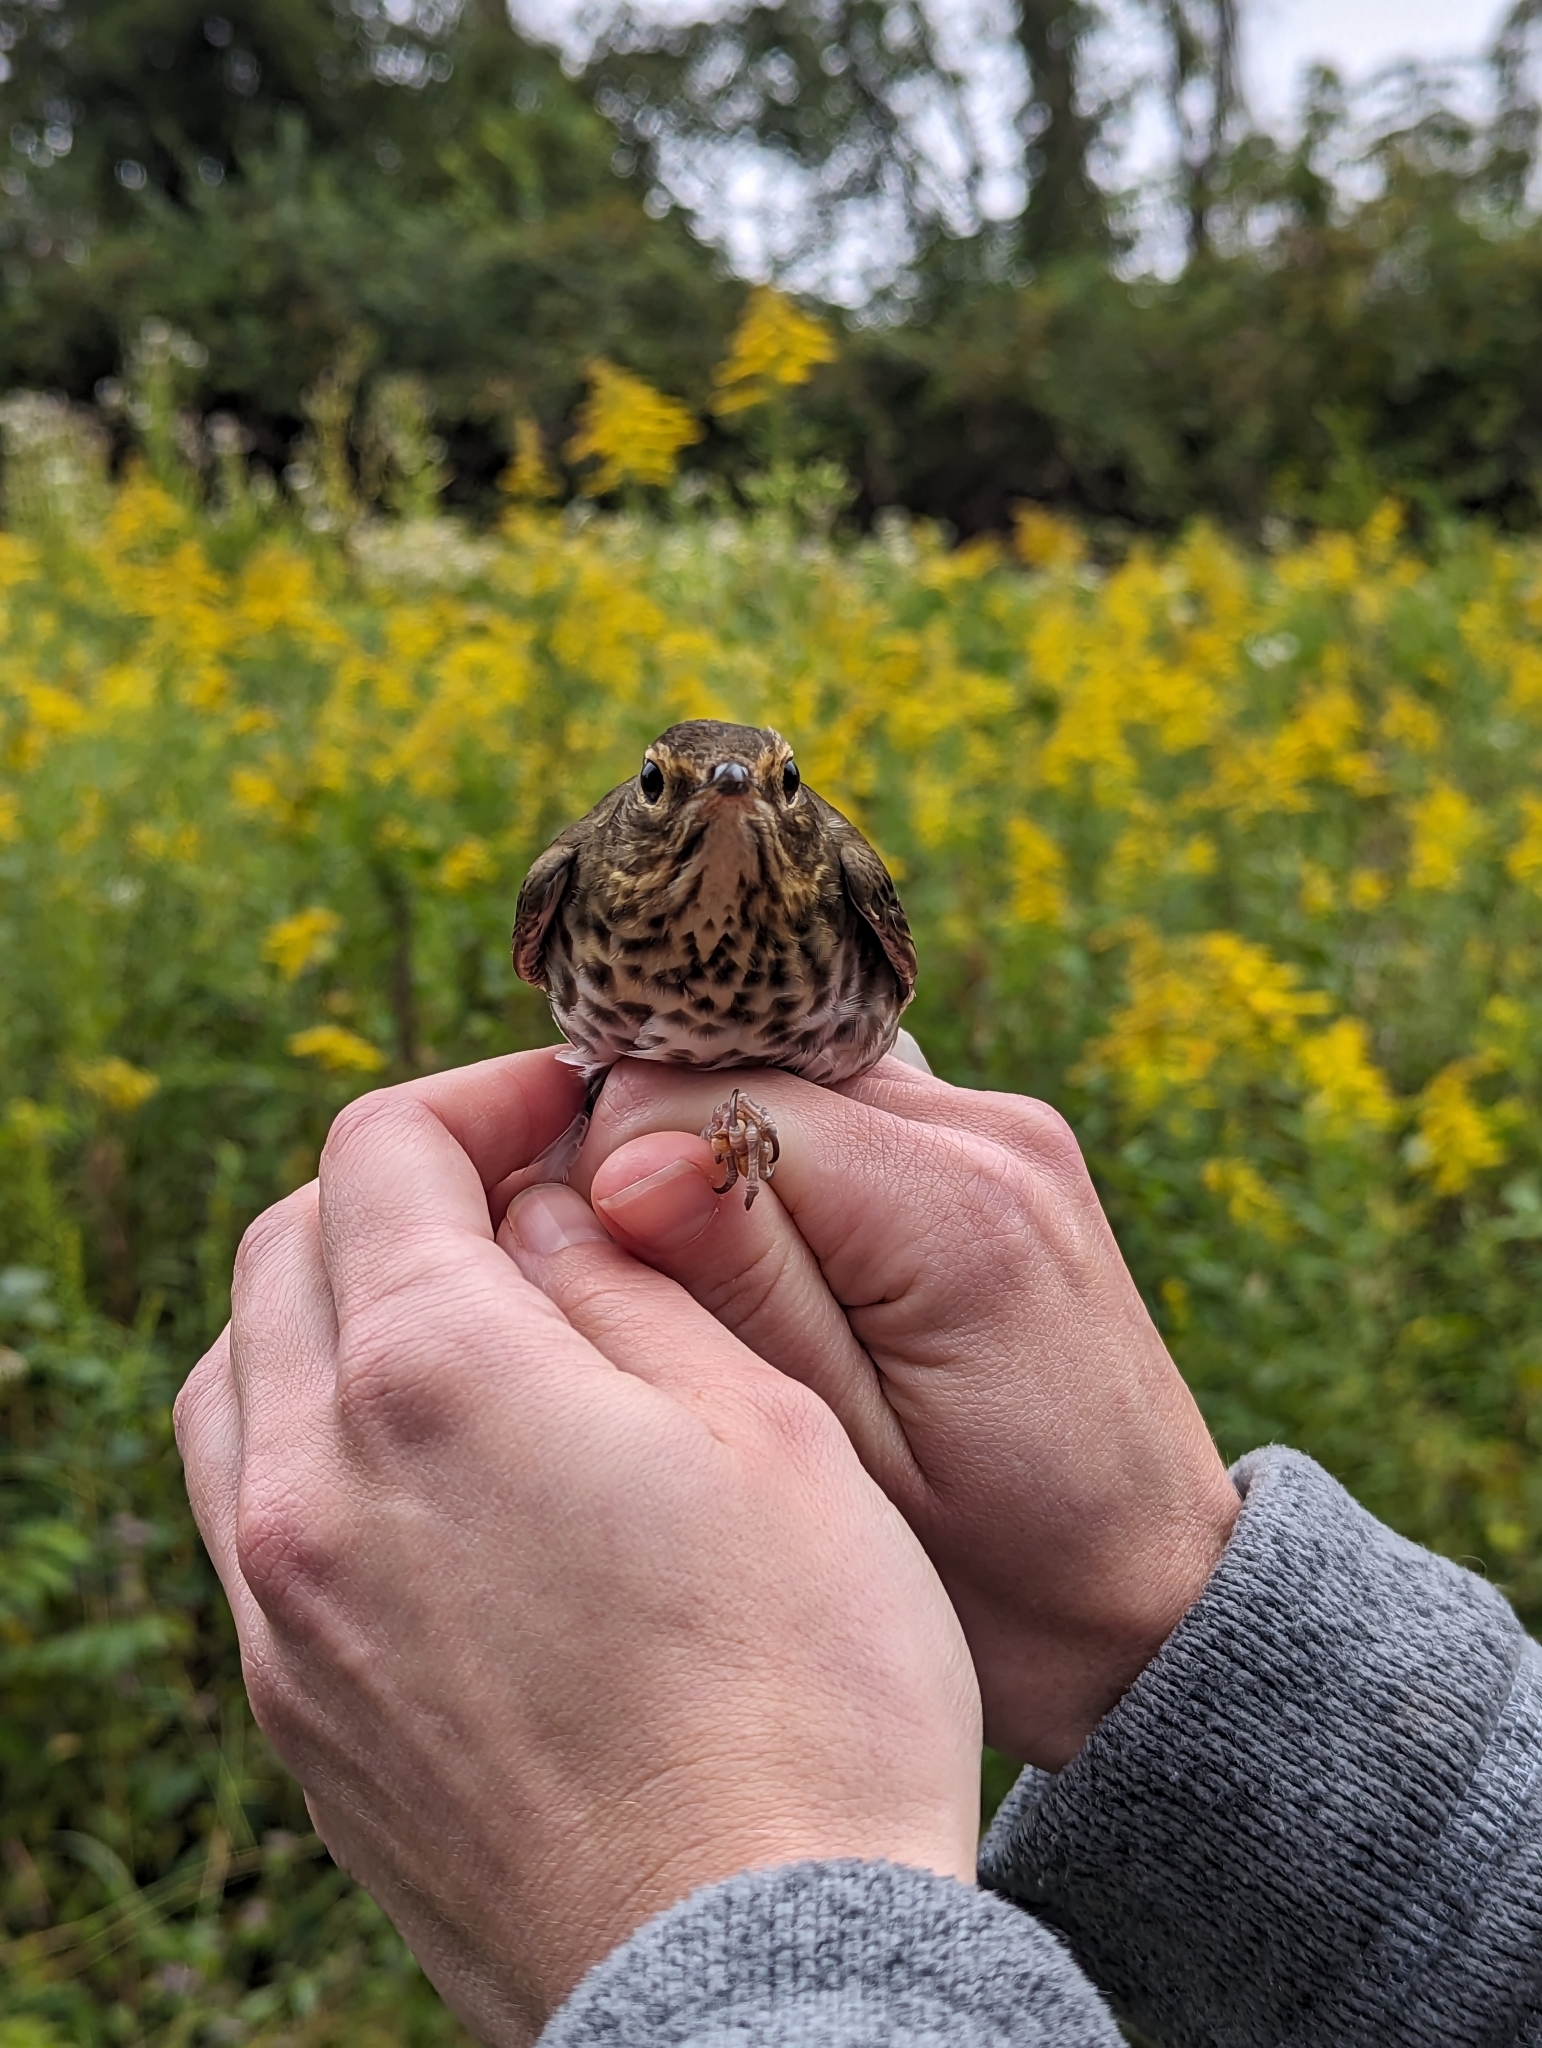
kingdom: Animalia
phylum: Chordata
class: Aves
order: Passeriformes
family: Turdidae
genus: Catharus
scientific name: Catharus ustulatus
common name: Swainson's thrush
